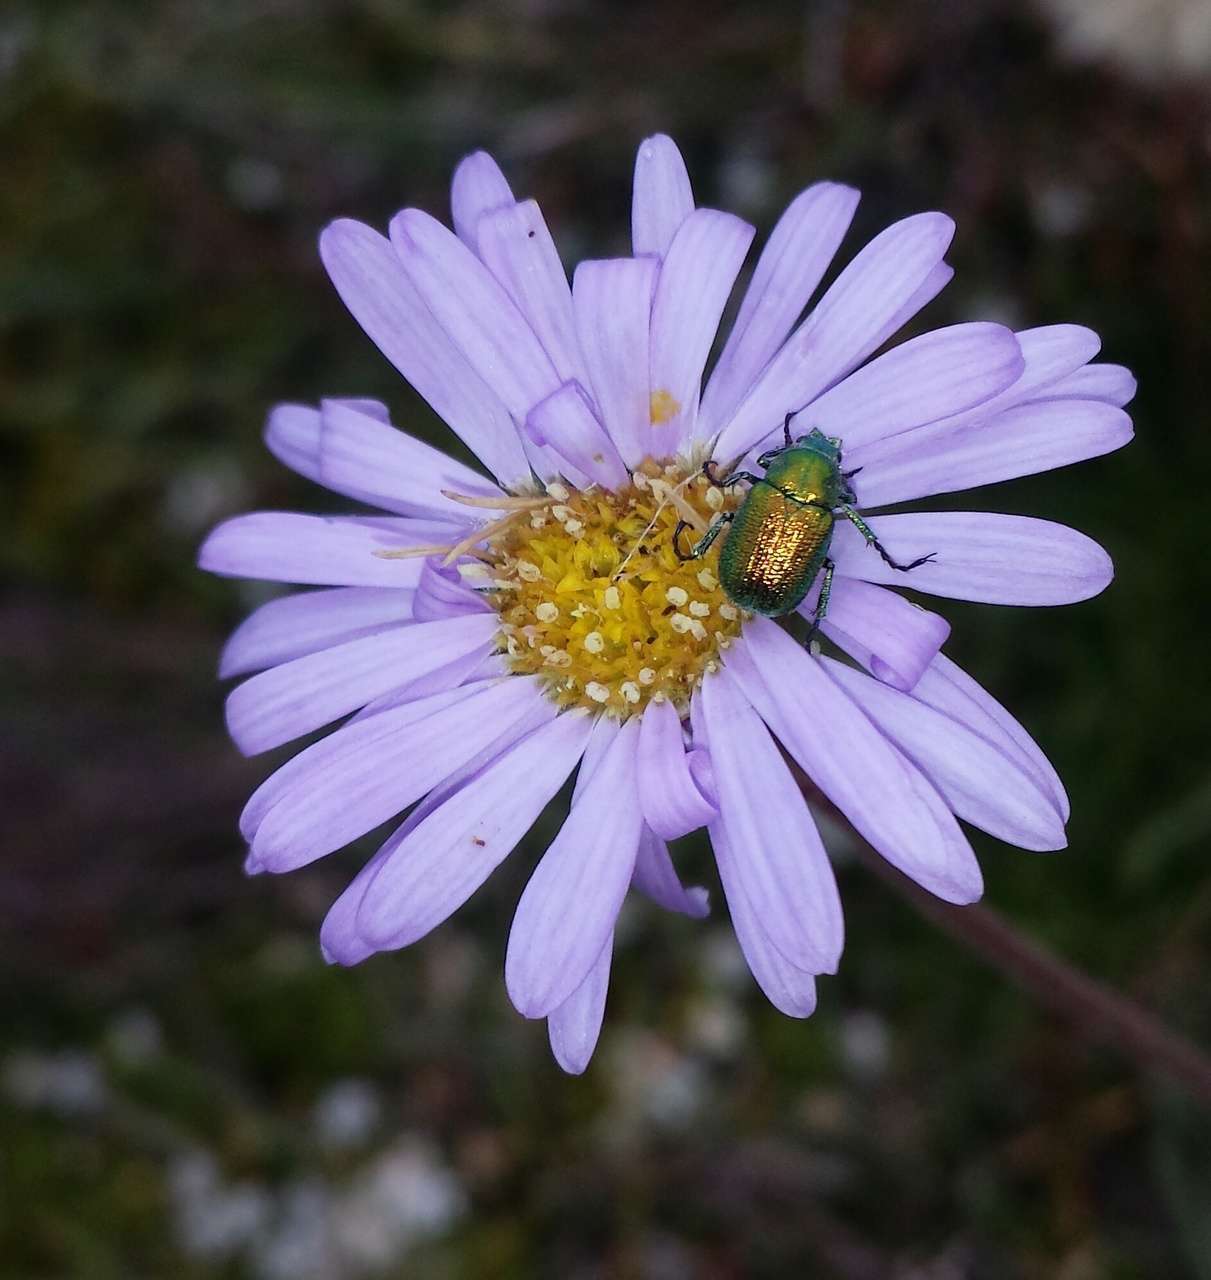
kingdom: Plantae
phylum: Tracheophyta
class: Magnoliopsida
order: Asterales
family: Asteraceae
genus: Brachyscome
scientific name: Brachyscome spathulata
